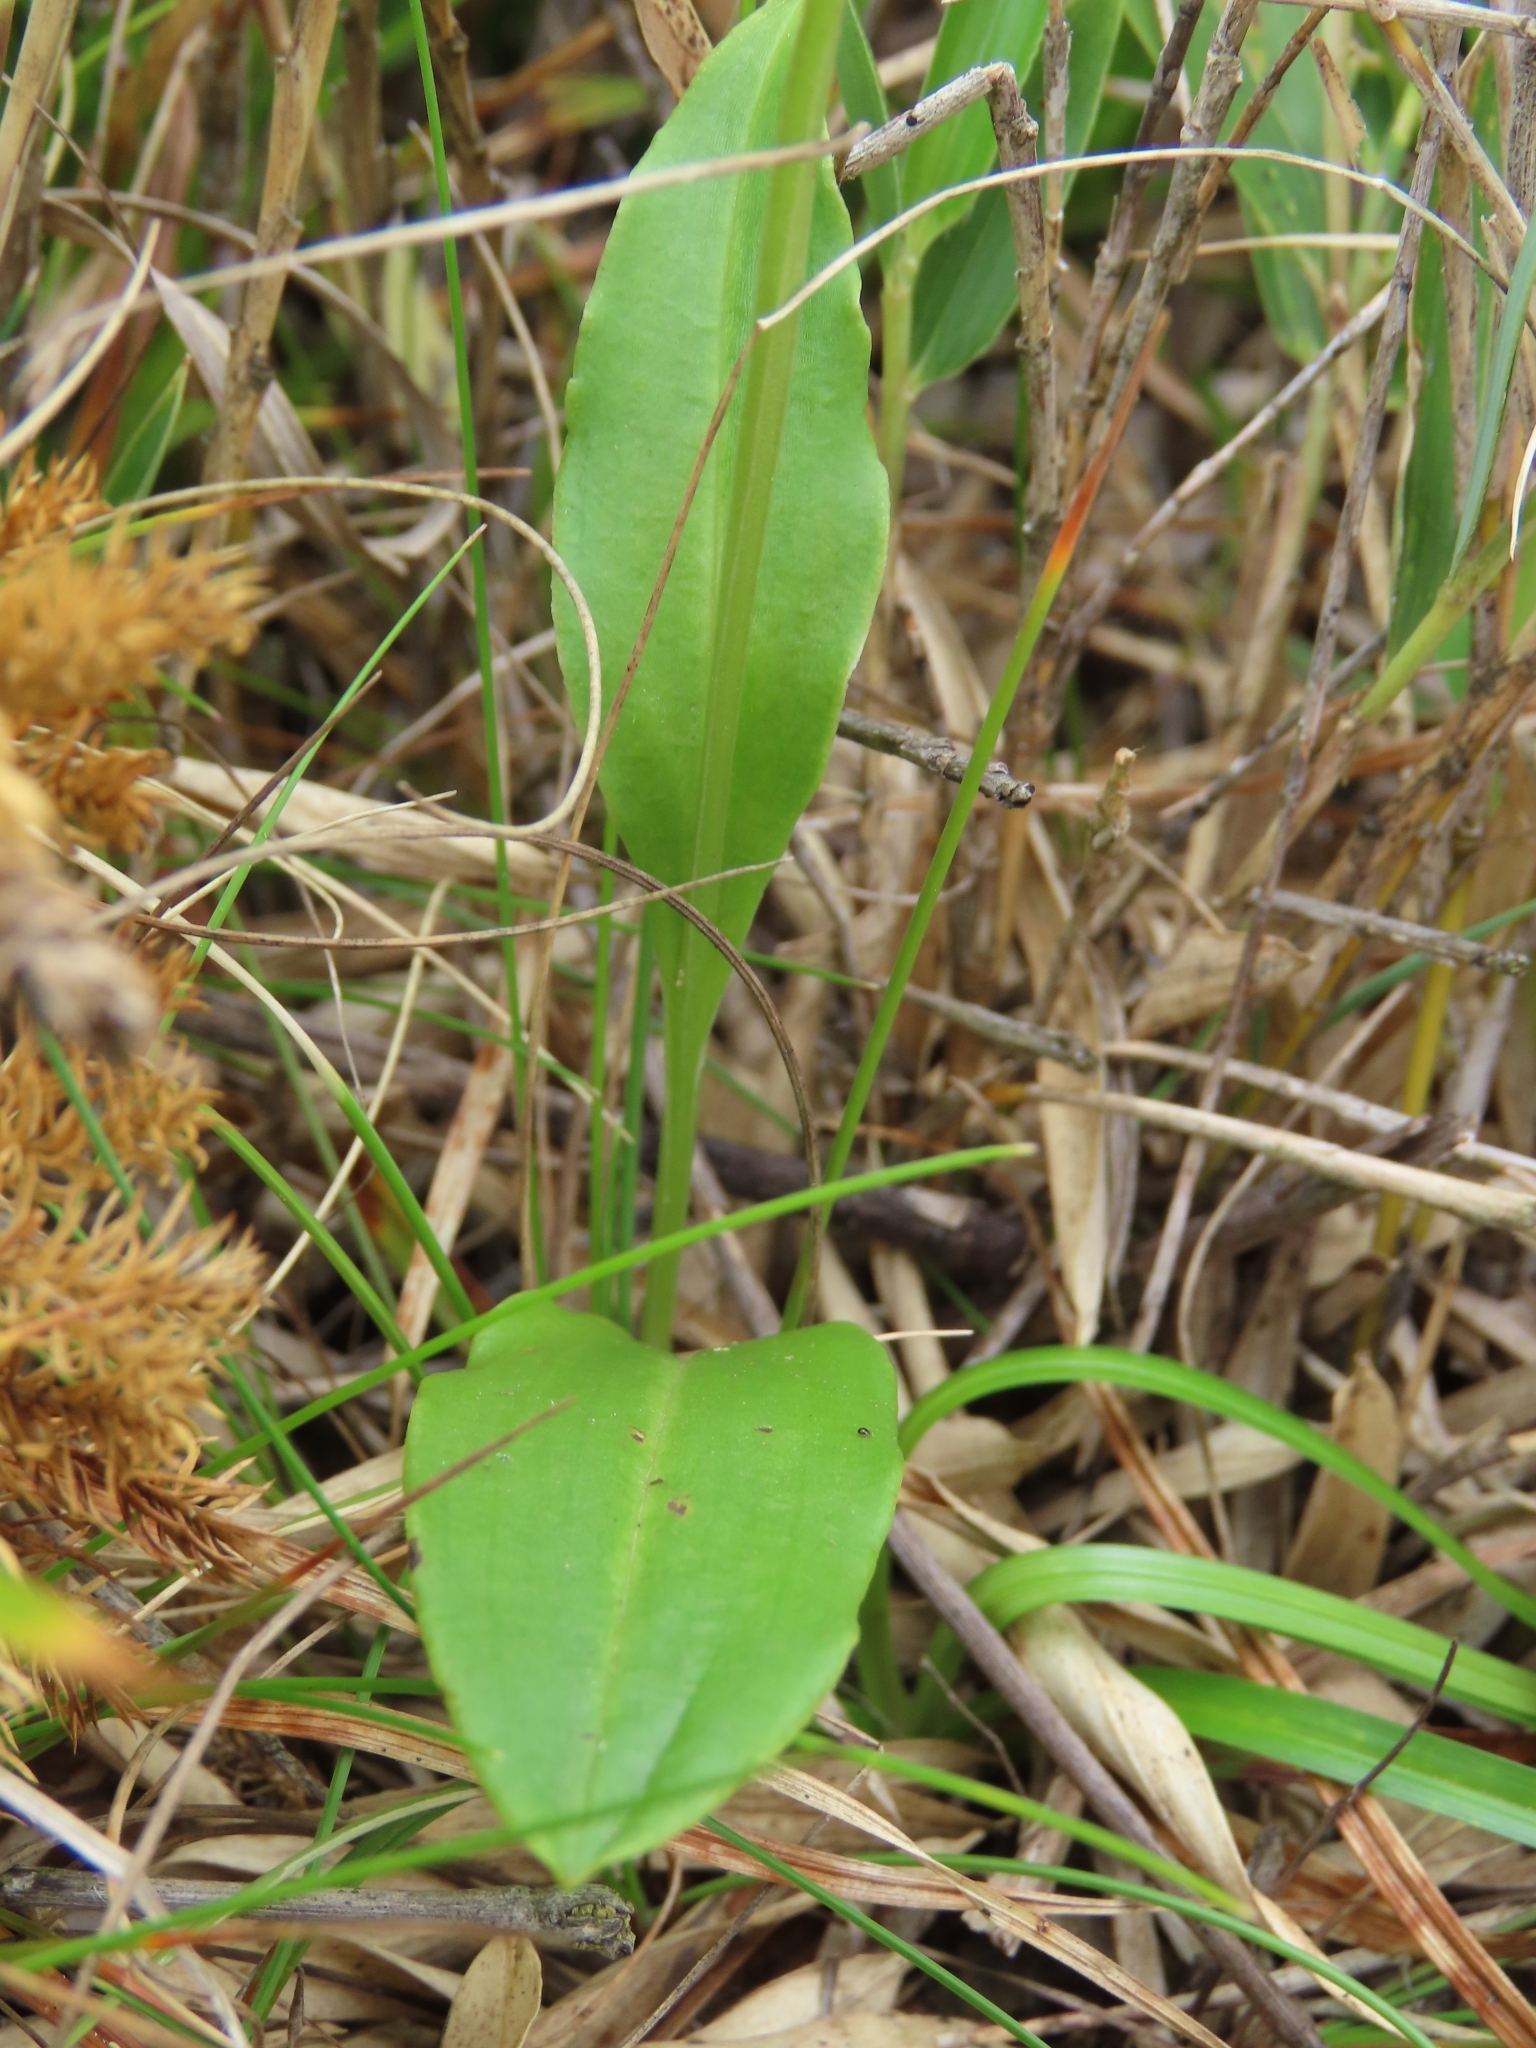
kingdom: Plantae
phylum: Tracheophyta
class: Liliopsida
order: Asparagales
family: Orchidaceae
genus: Platanthera
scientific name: Platanthera brevicalcarata
